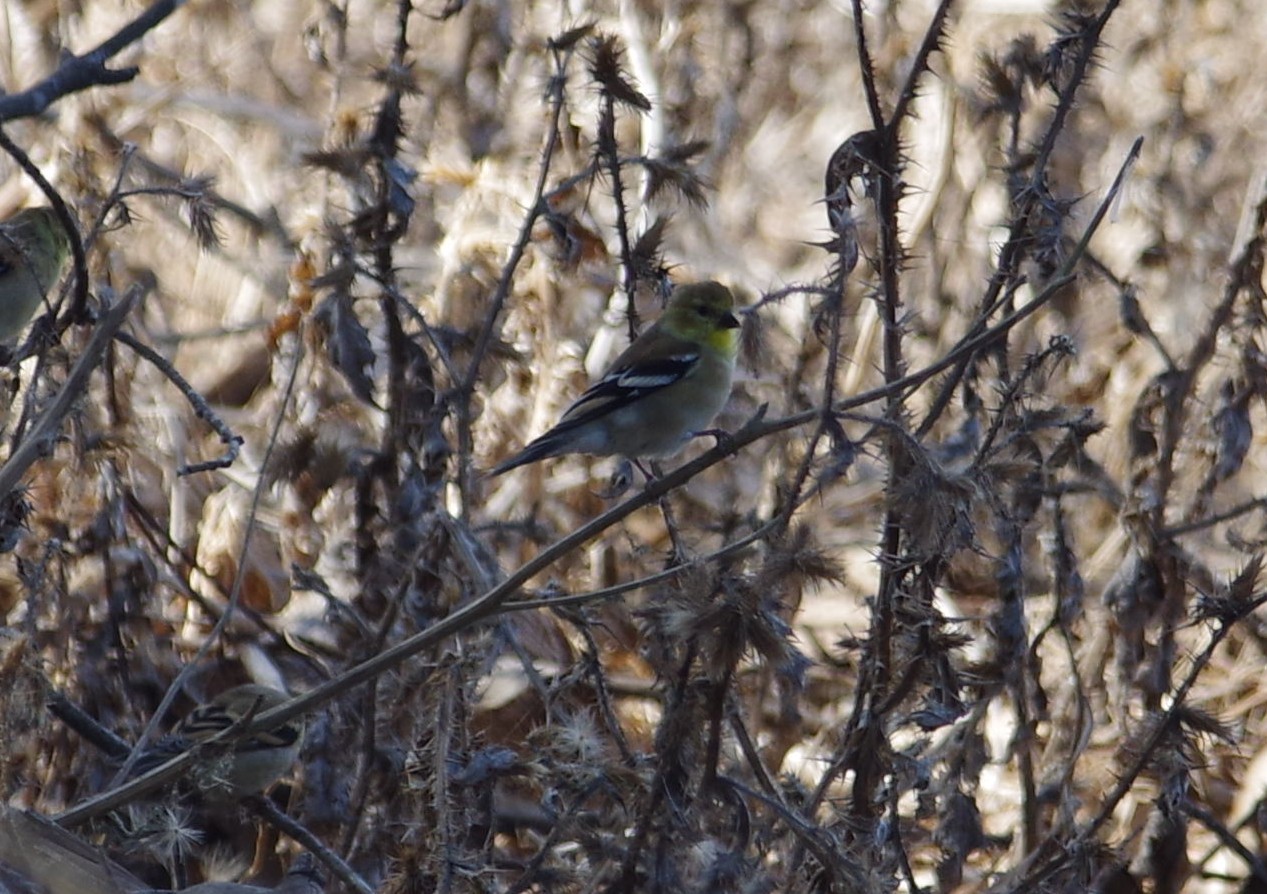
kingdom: Animalia
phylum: Chordata
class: Aves
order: Passeriformes
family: Fringillidae
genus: Spinus
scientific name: Spinus tristis
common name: American goldfinch
